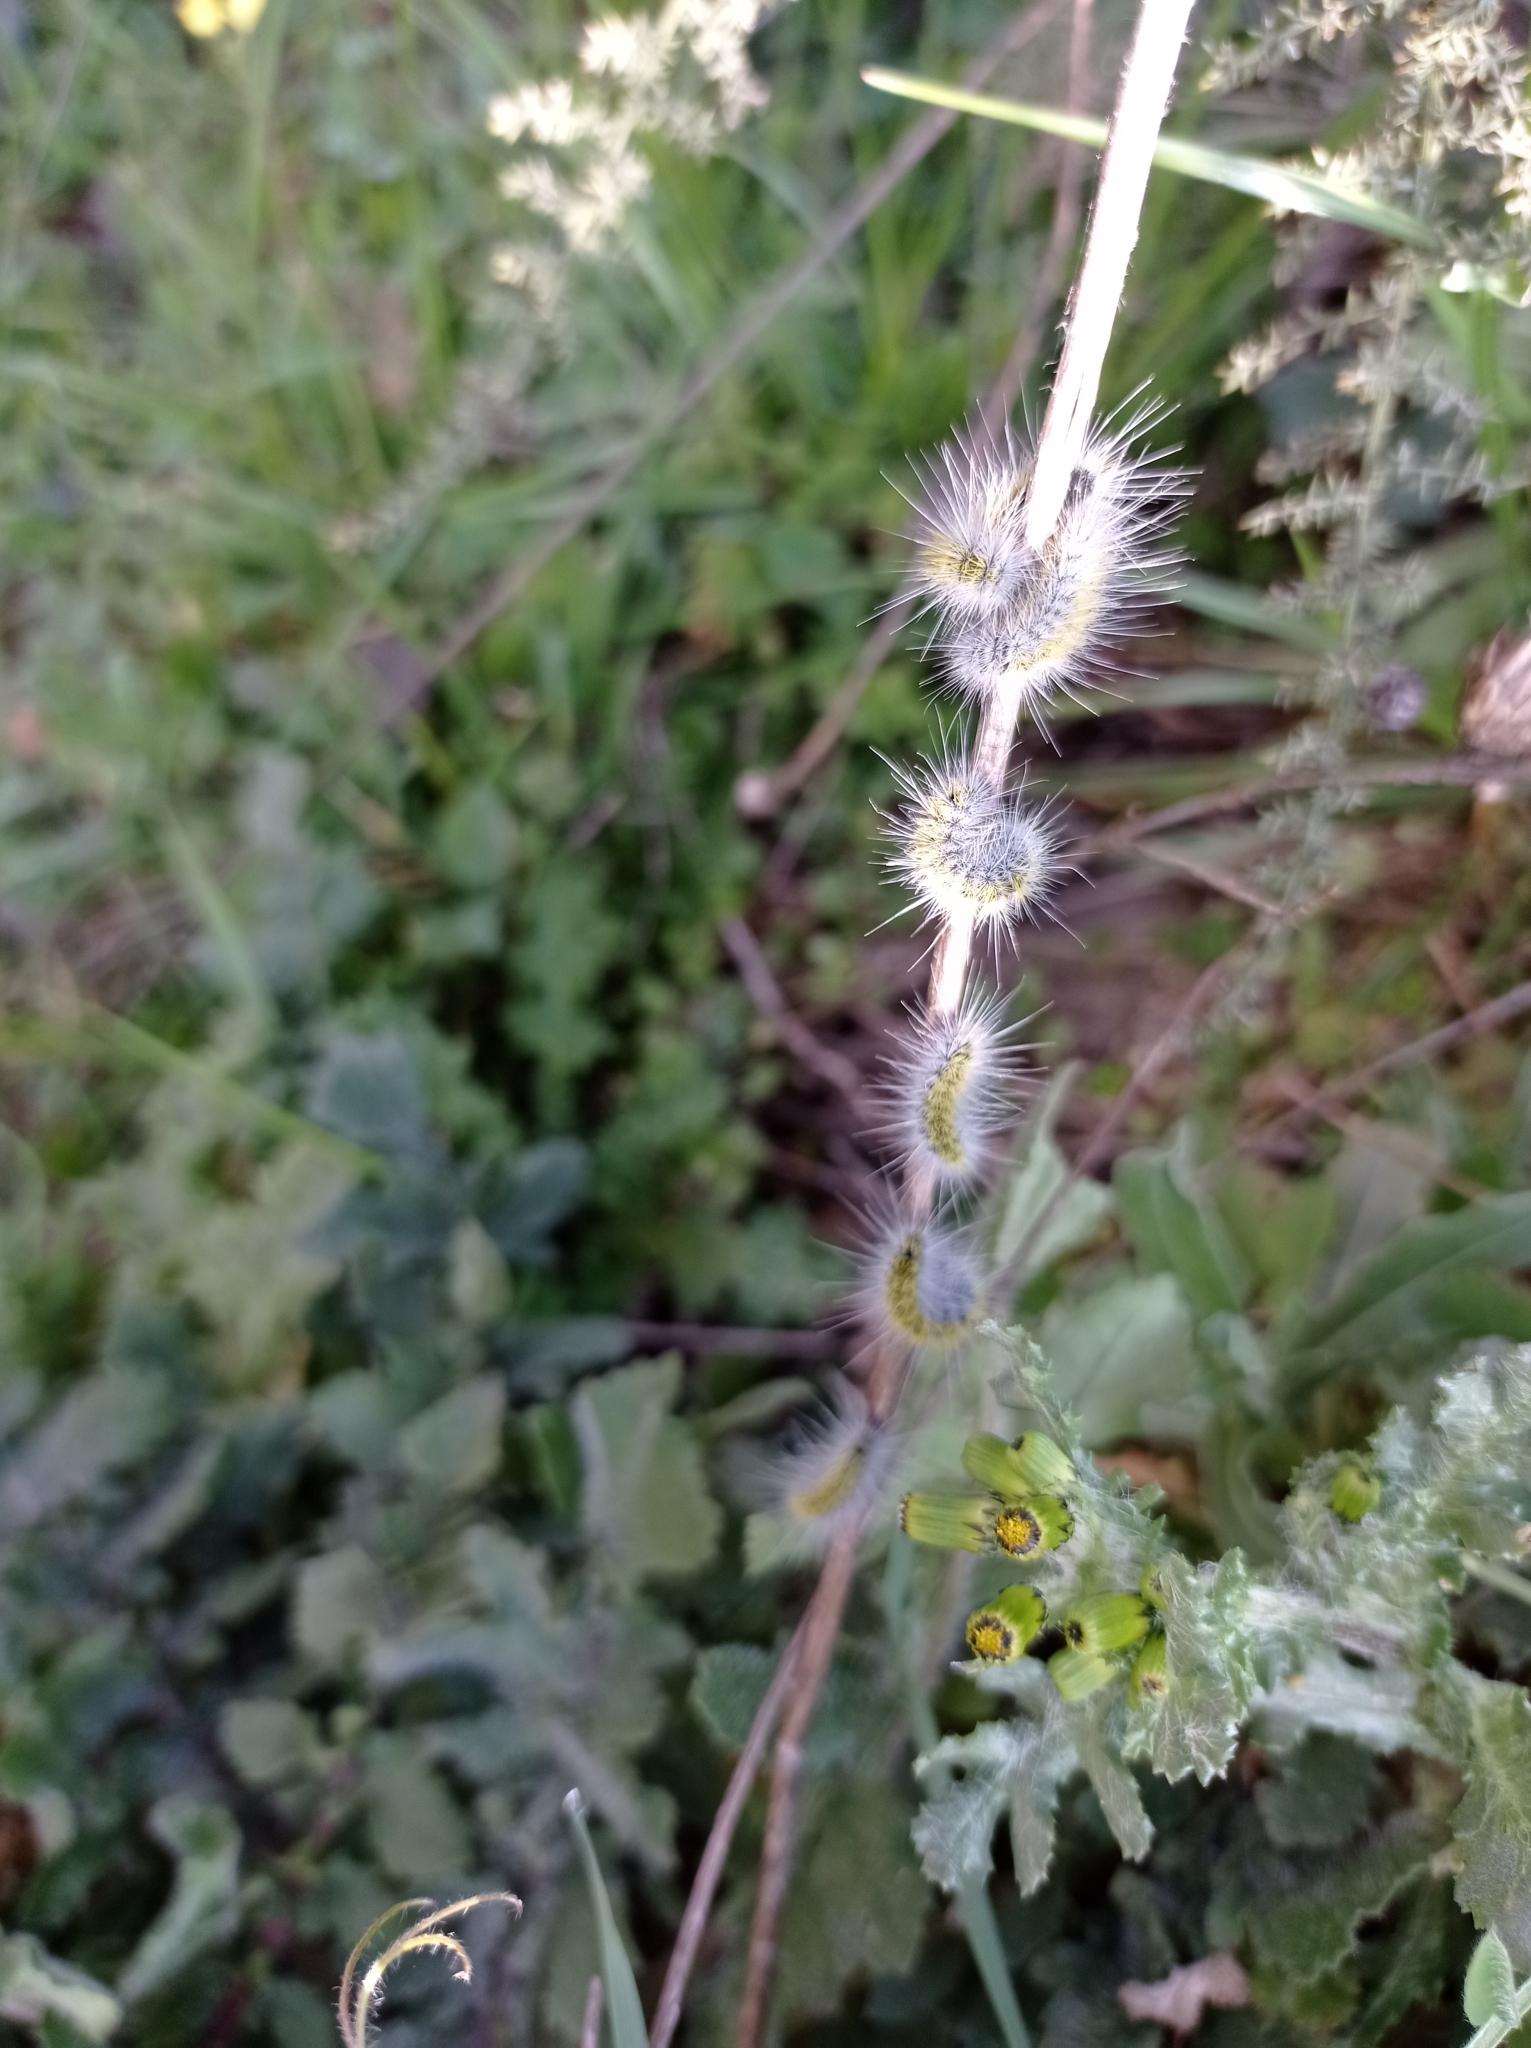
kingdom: Animalia
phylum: Arthropoda
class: Insecta
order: Lepidoptera
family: Notodontidae
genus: Thaumetopoea
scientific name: Thaumetopoea herculeana
